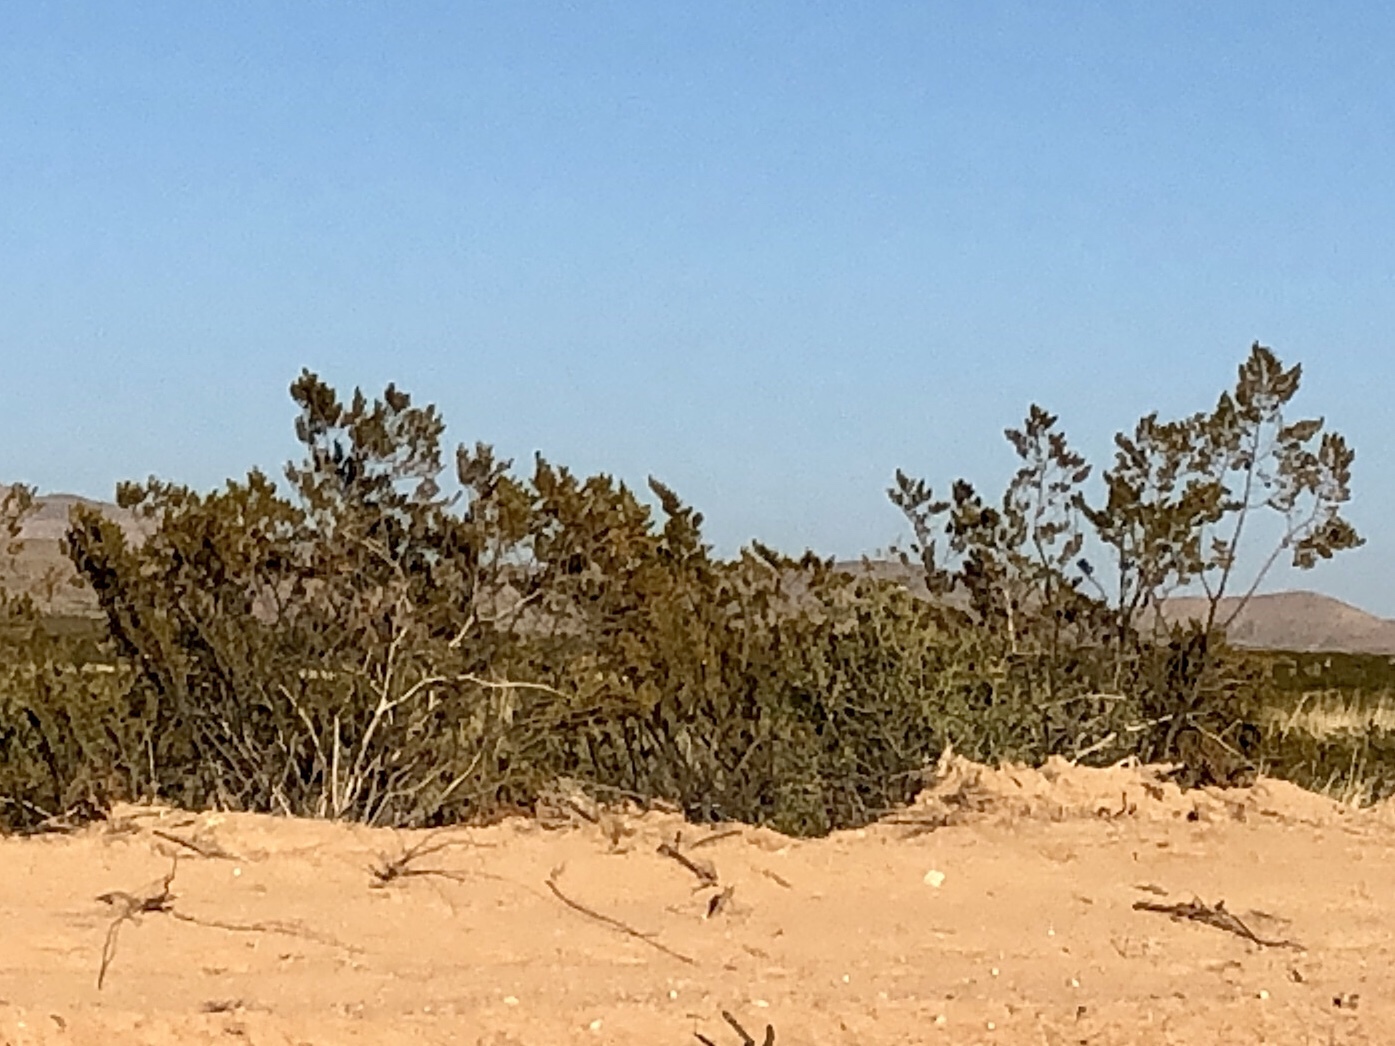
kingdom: Plantae
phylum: Tracheophyta
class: Magnoliopsida
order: Zygophyllales
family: Zygophyllaceae
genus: Larrea
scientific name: Larrea tridentata
